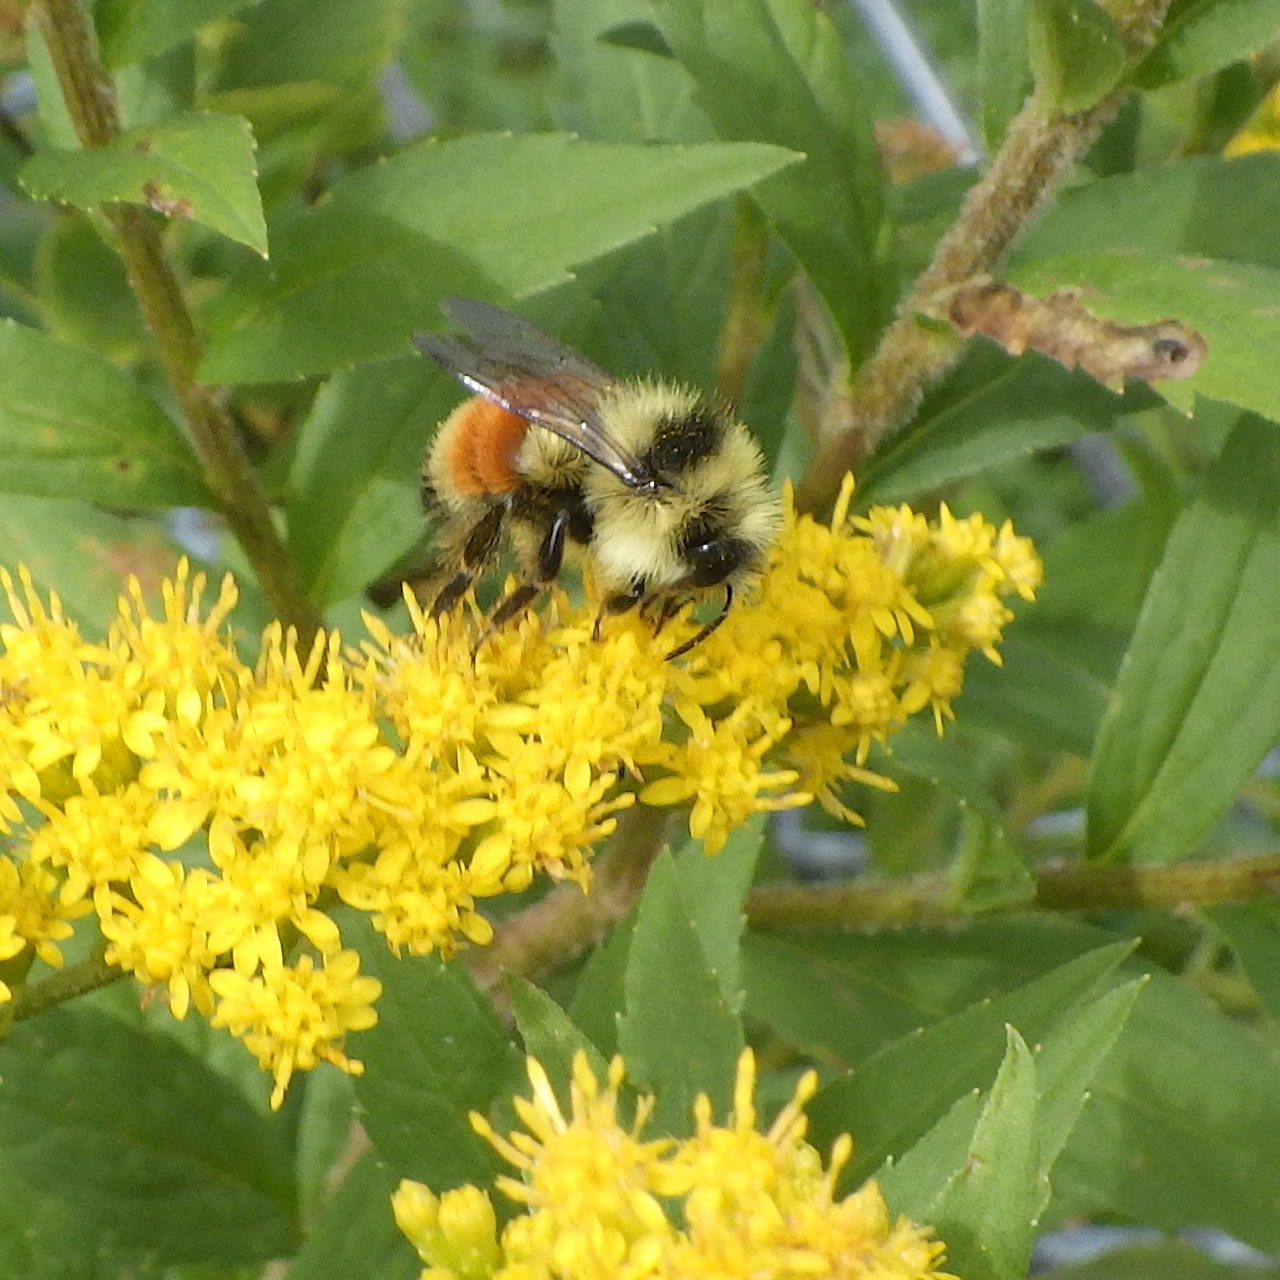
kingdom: Animalia
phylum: Arthropoda
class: Insecta
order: Hymenoptera
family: Apidae
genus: Bombus
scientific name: Bombus ternarius
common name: Tri-colored bumble bee
